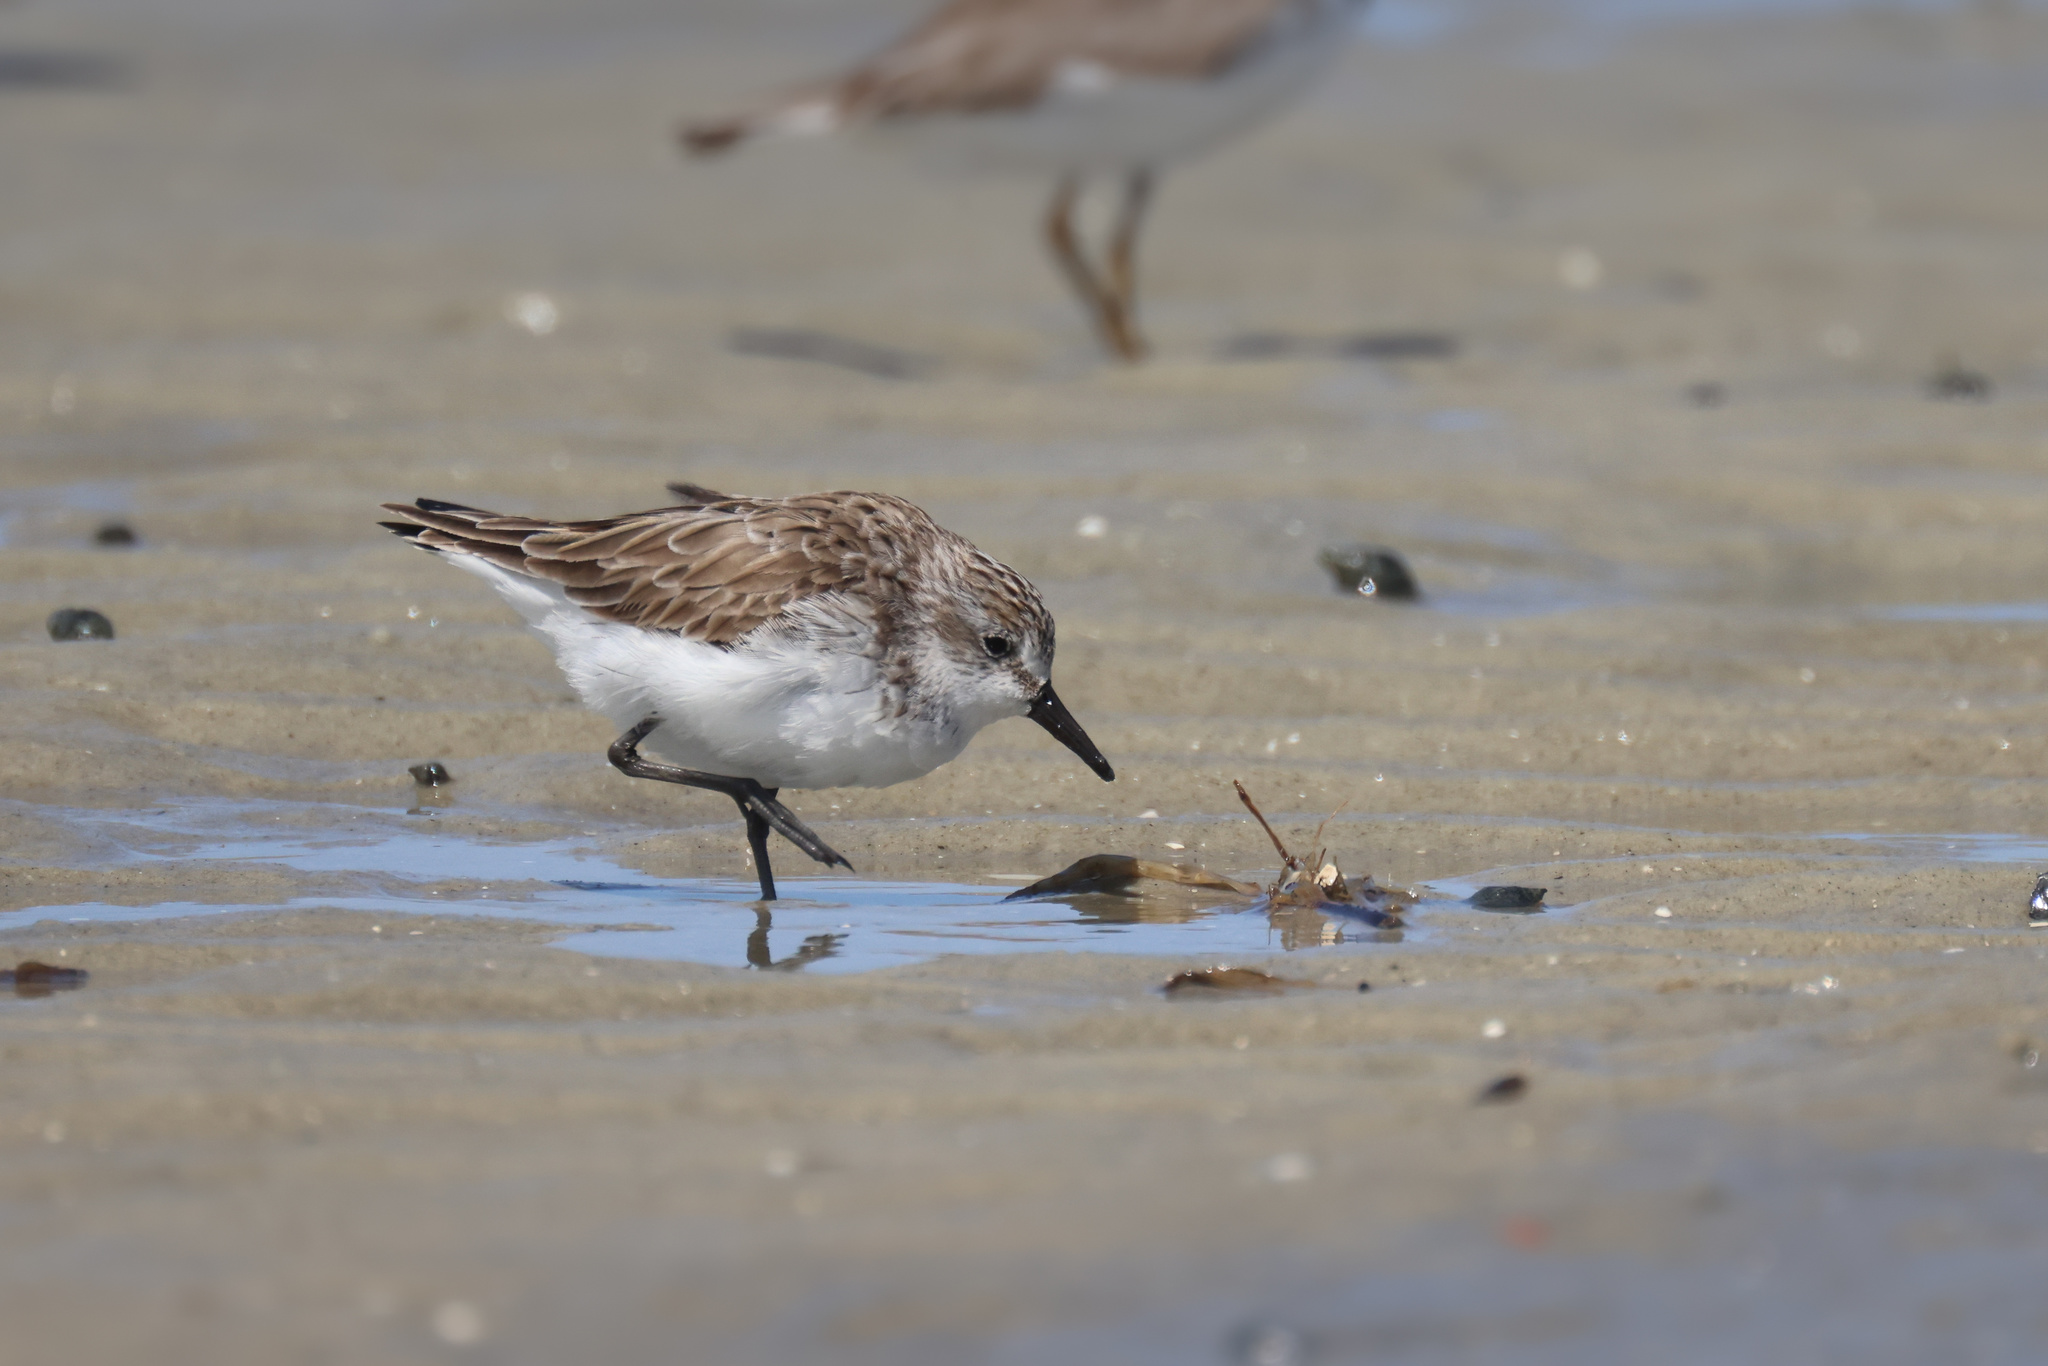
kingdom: Animalia
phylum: Chordata
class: Aves
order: Charadriiformes
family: Scolopacidae
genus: Calidris
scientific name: Calidris pusilla
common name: Semipalmated sandpiper
